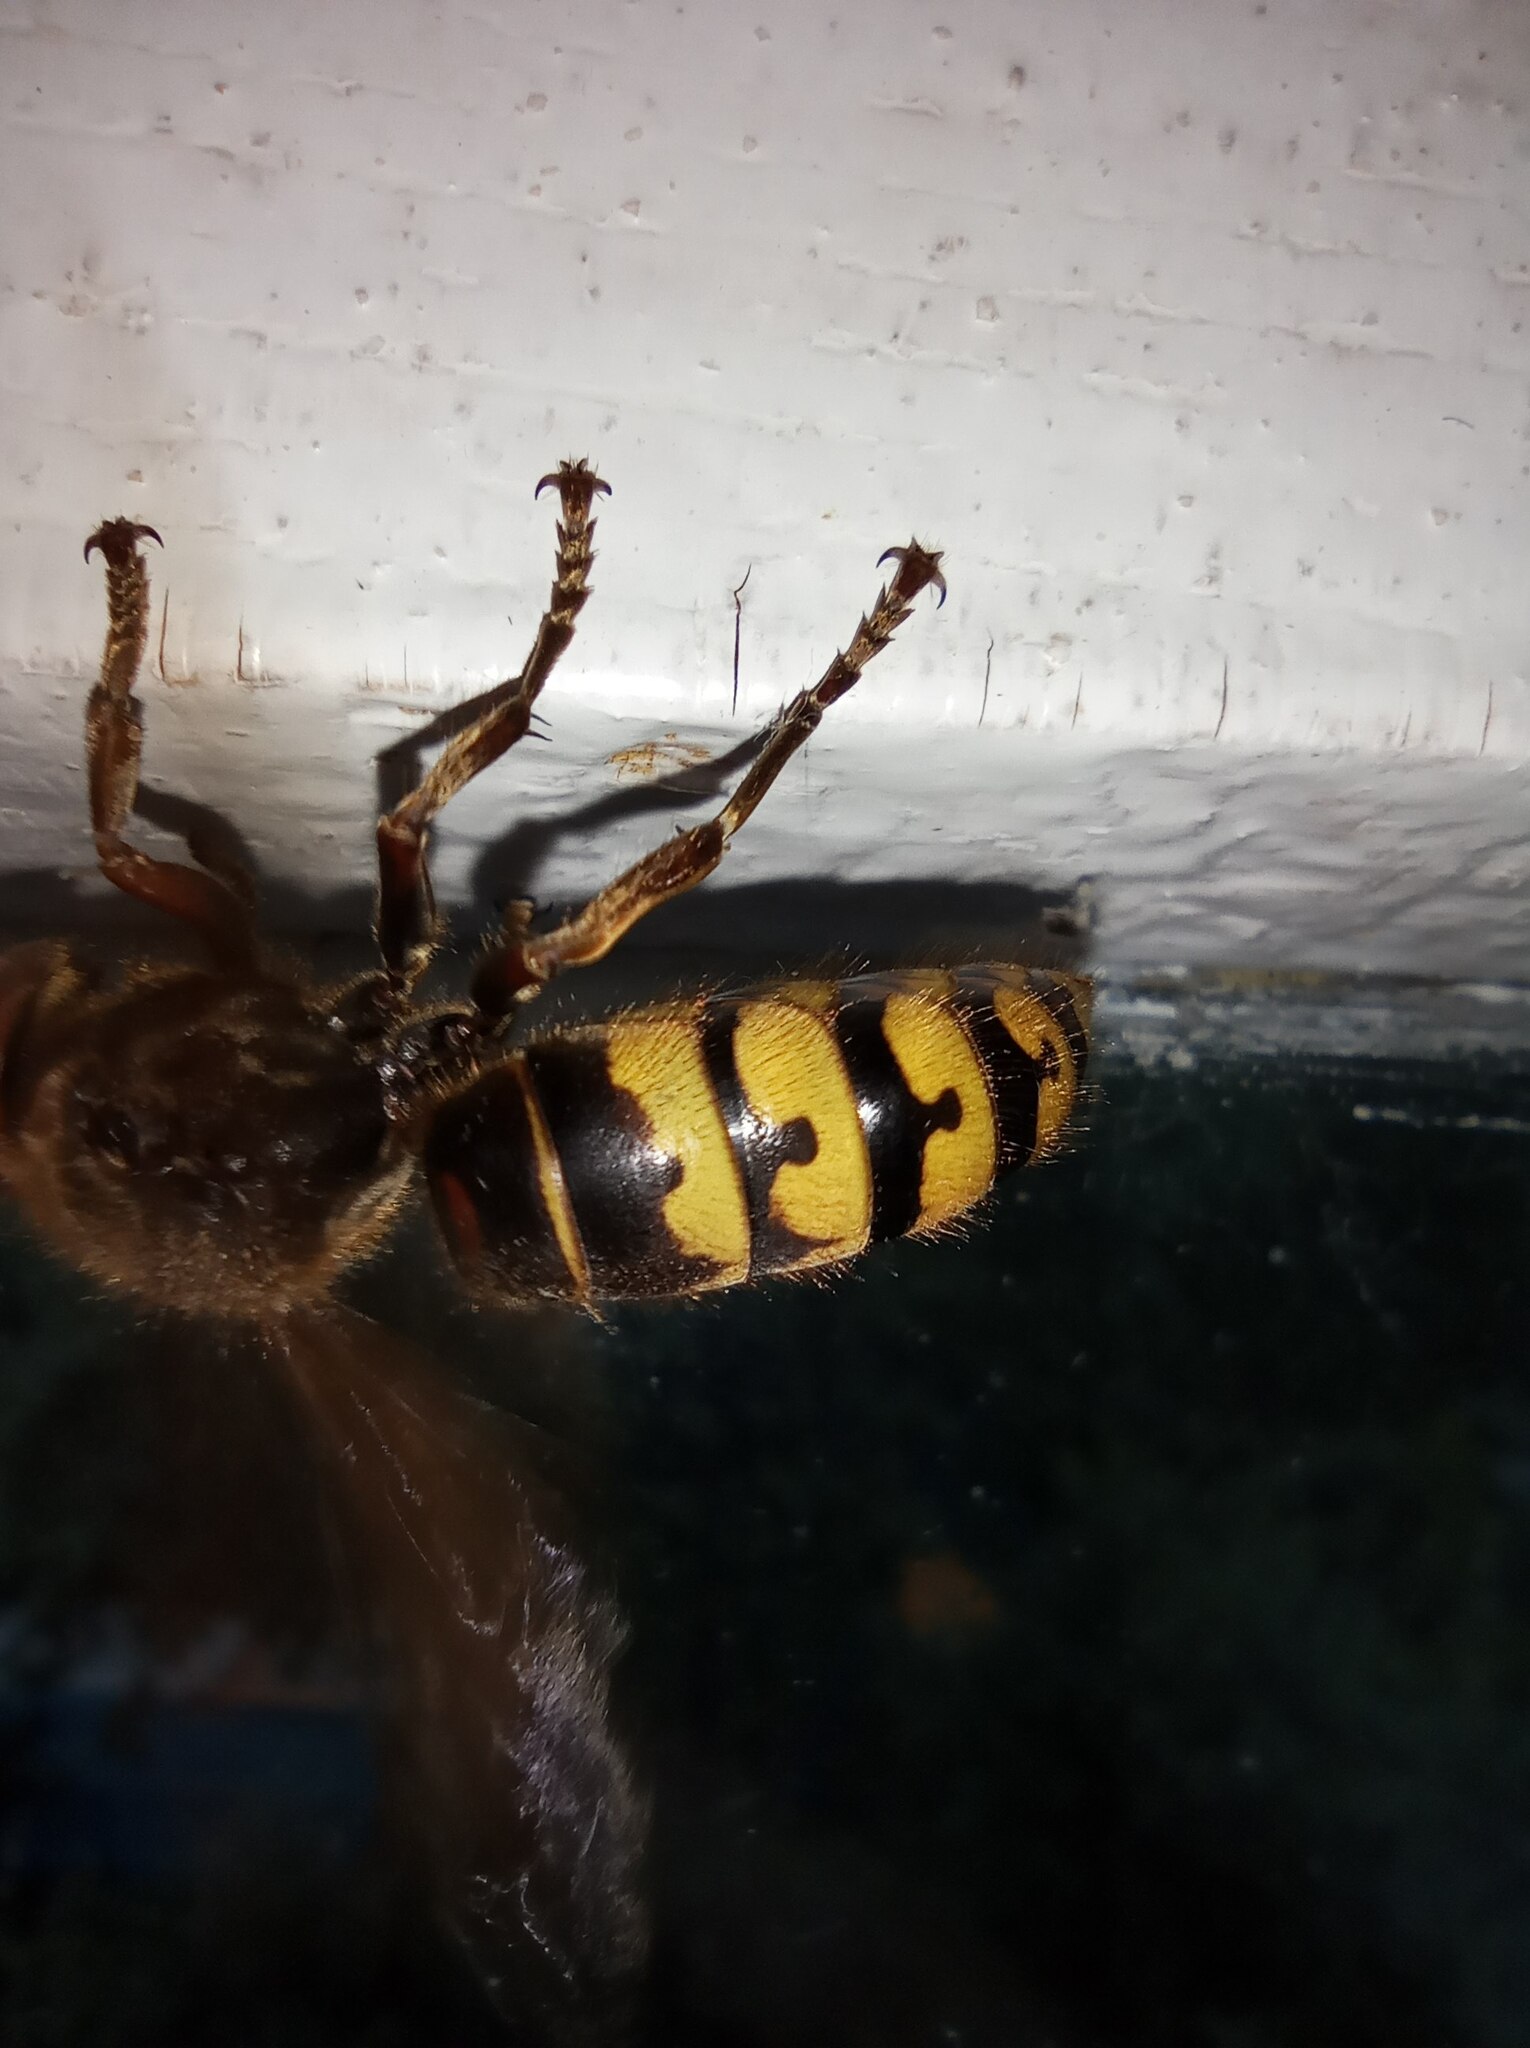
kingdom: Animalia
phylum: Arthropoda
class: Insecta
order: Hymenoptera
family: Vespidae
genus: Vespa
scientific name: Vespa crabro
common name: Hornet
